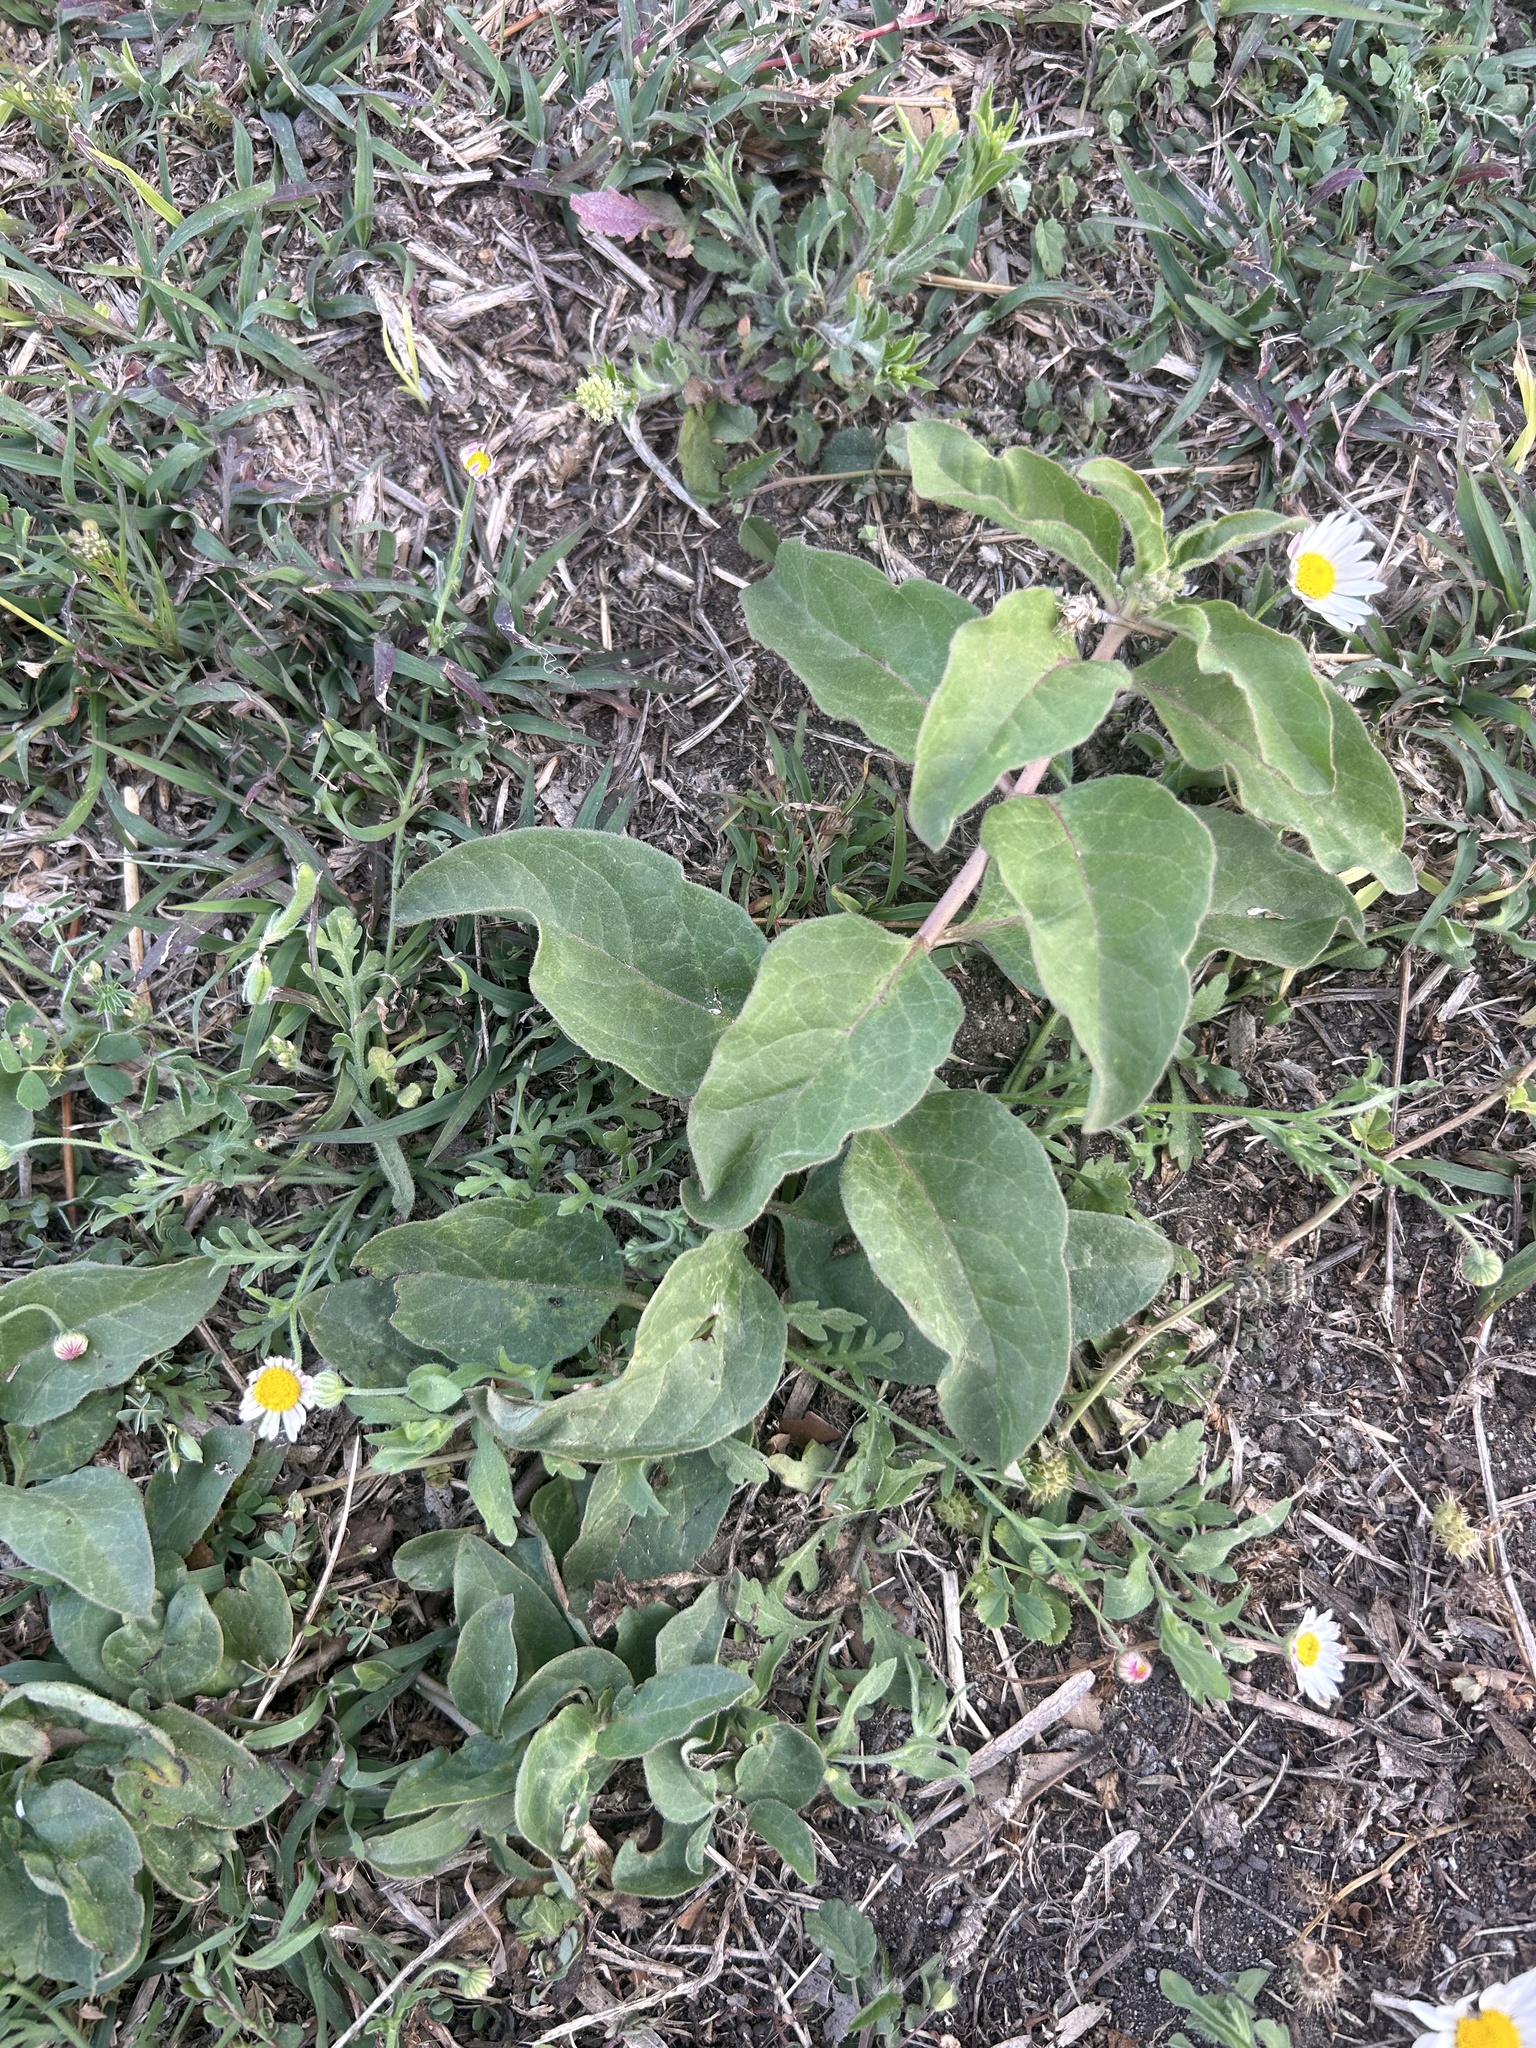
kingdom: Plantae
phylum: Tracheophyta
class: Magnoliopsida
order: Gentianales
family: Apocynaceae
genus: Asclepias
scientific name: Asclepias oenotheroides
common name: Zizotes milkweed
